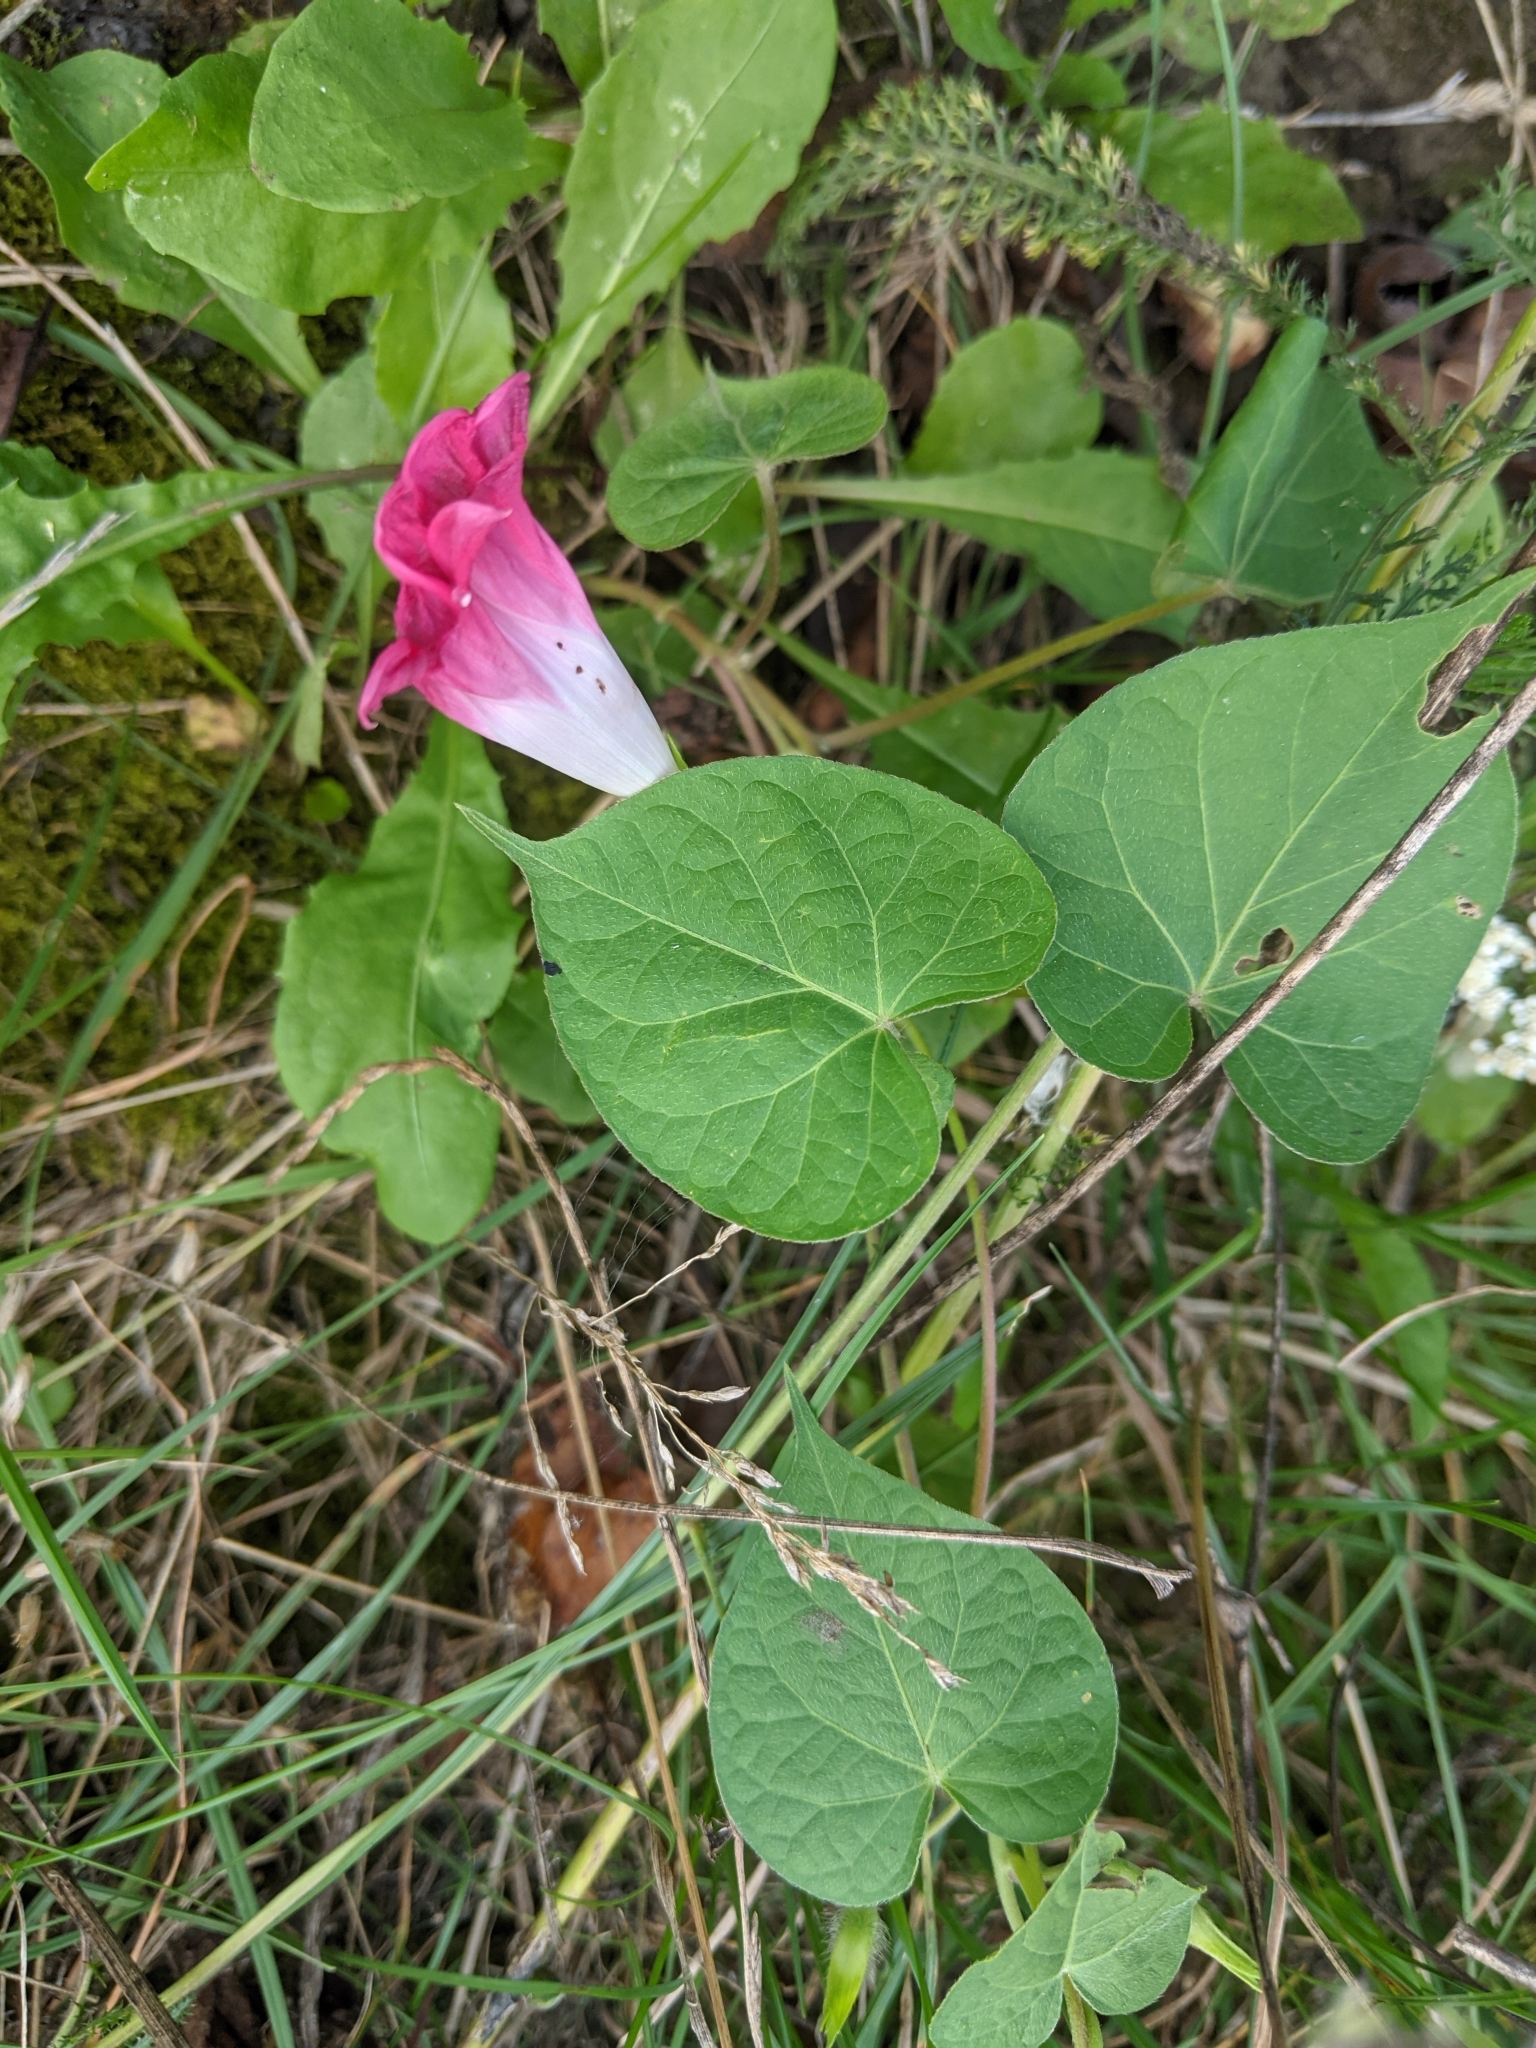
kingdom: Plantae
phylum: Tracheophyta
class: Magnoliopsida
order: Solanales
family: Convolvulaceae
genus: Ipomoea
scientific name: Ipomoea purpurea
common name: Common morning-glory
